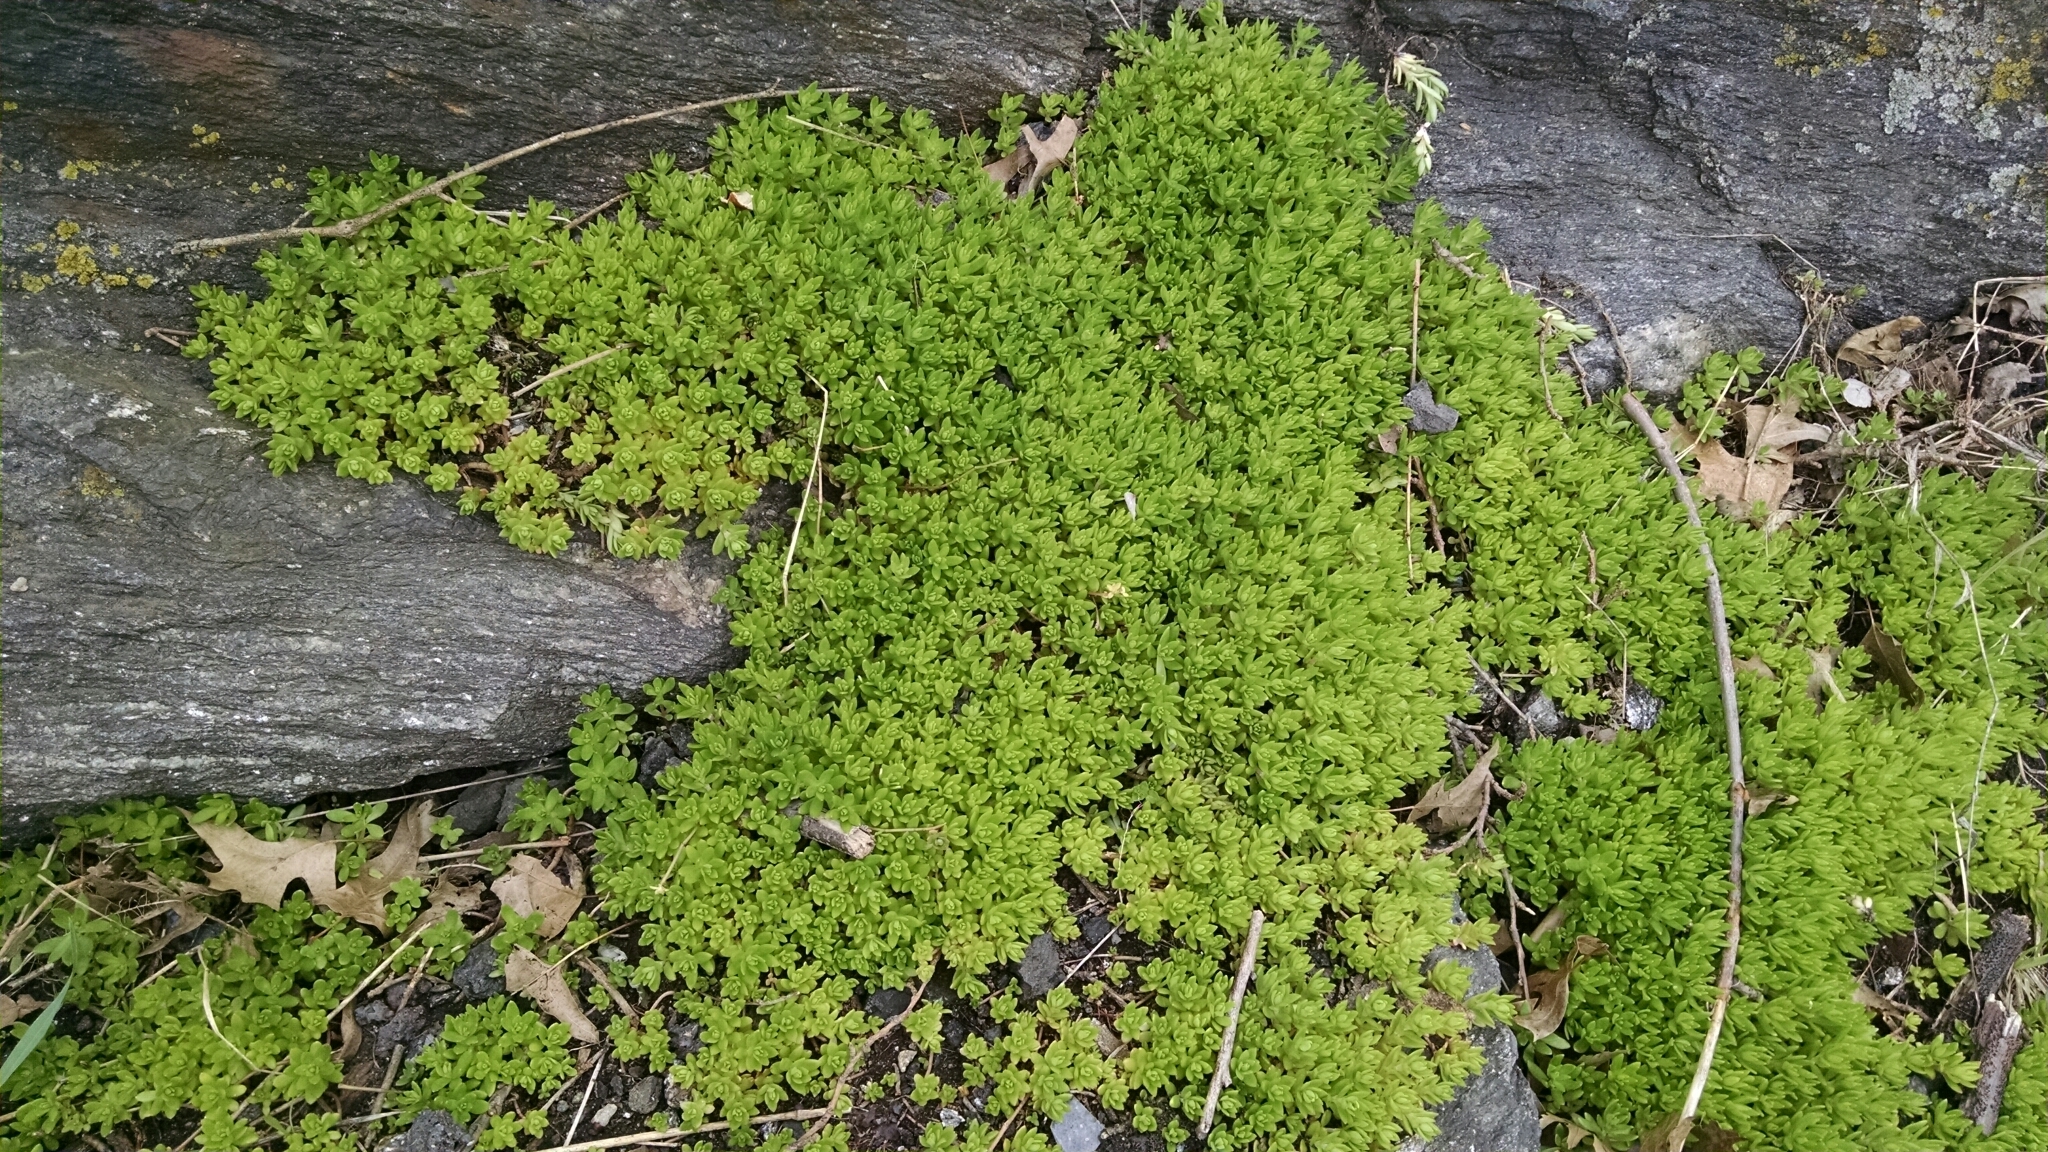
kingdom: Plantae
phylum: Tracheophyta
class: Magnoliopsida
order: Saxifragales
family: Crassulaceae
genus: Sedum
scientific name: Sedum sarmentosum
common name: Stringy stonecrop
